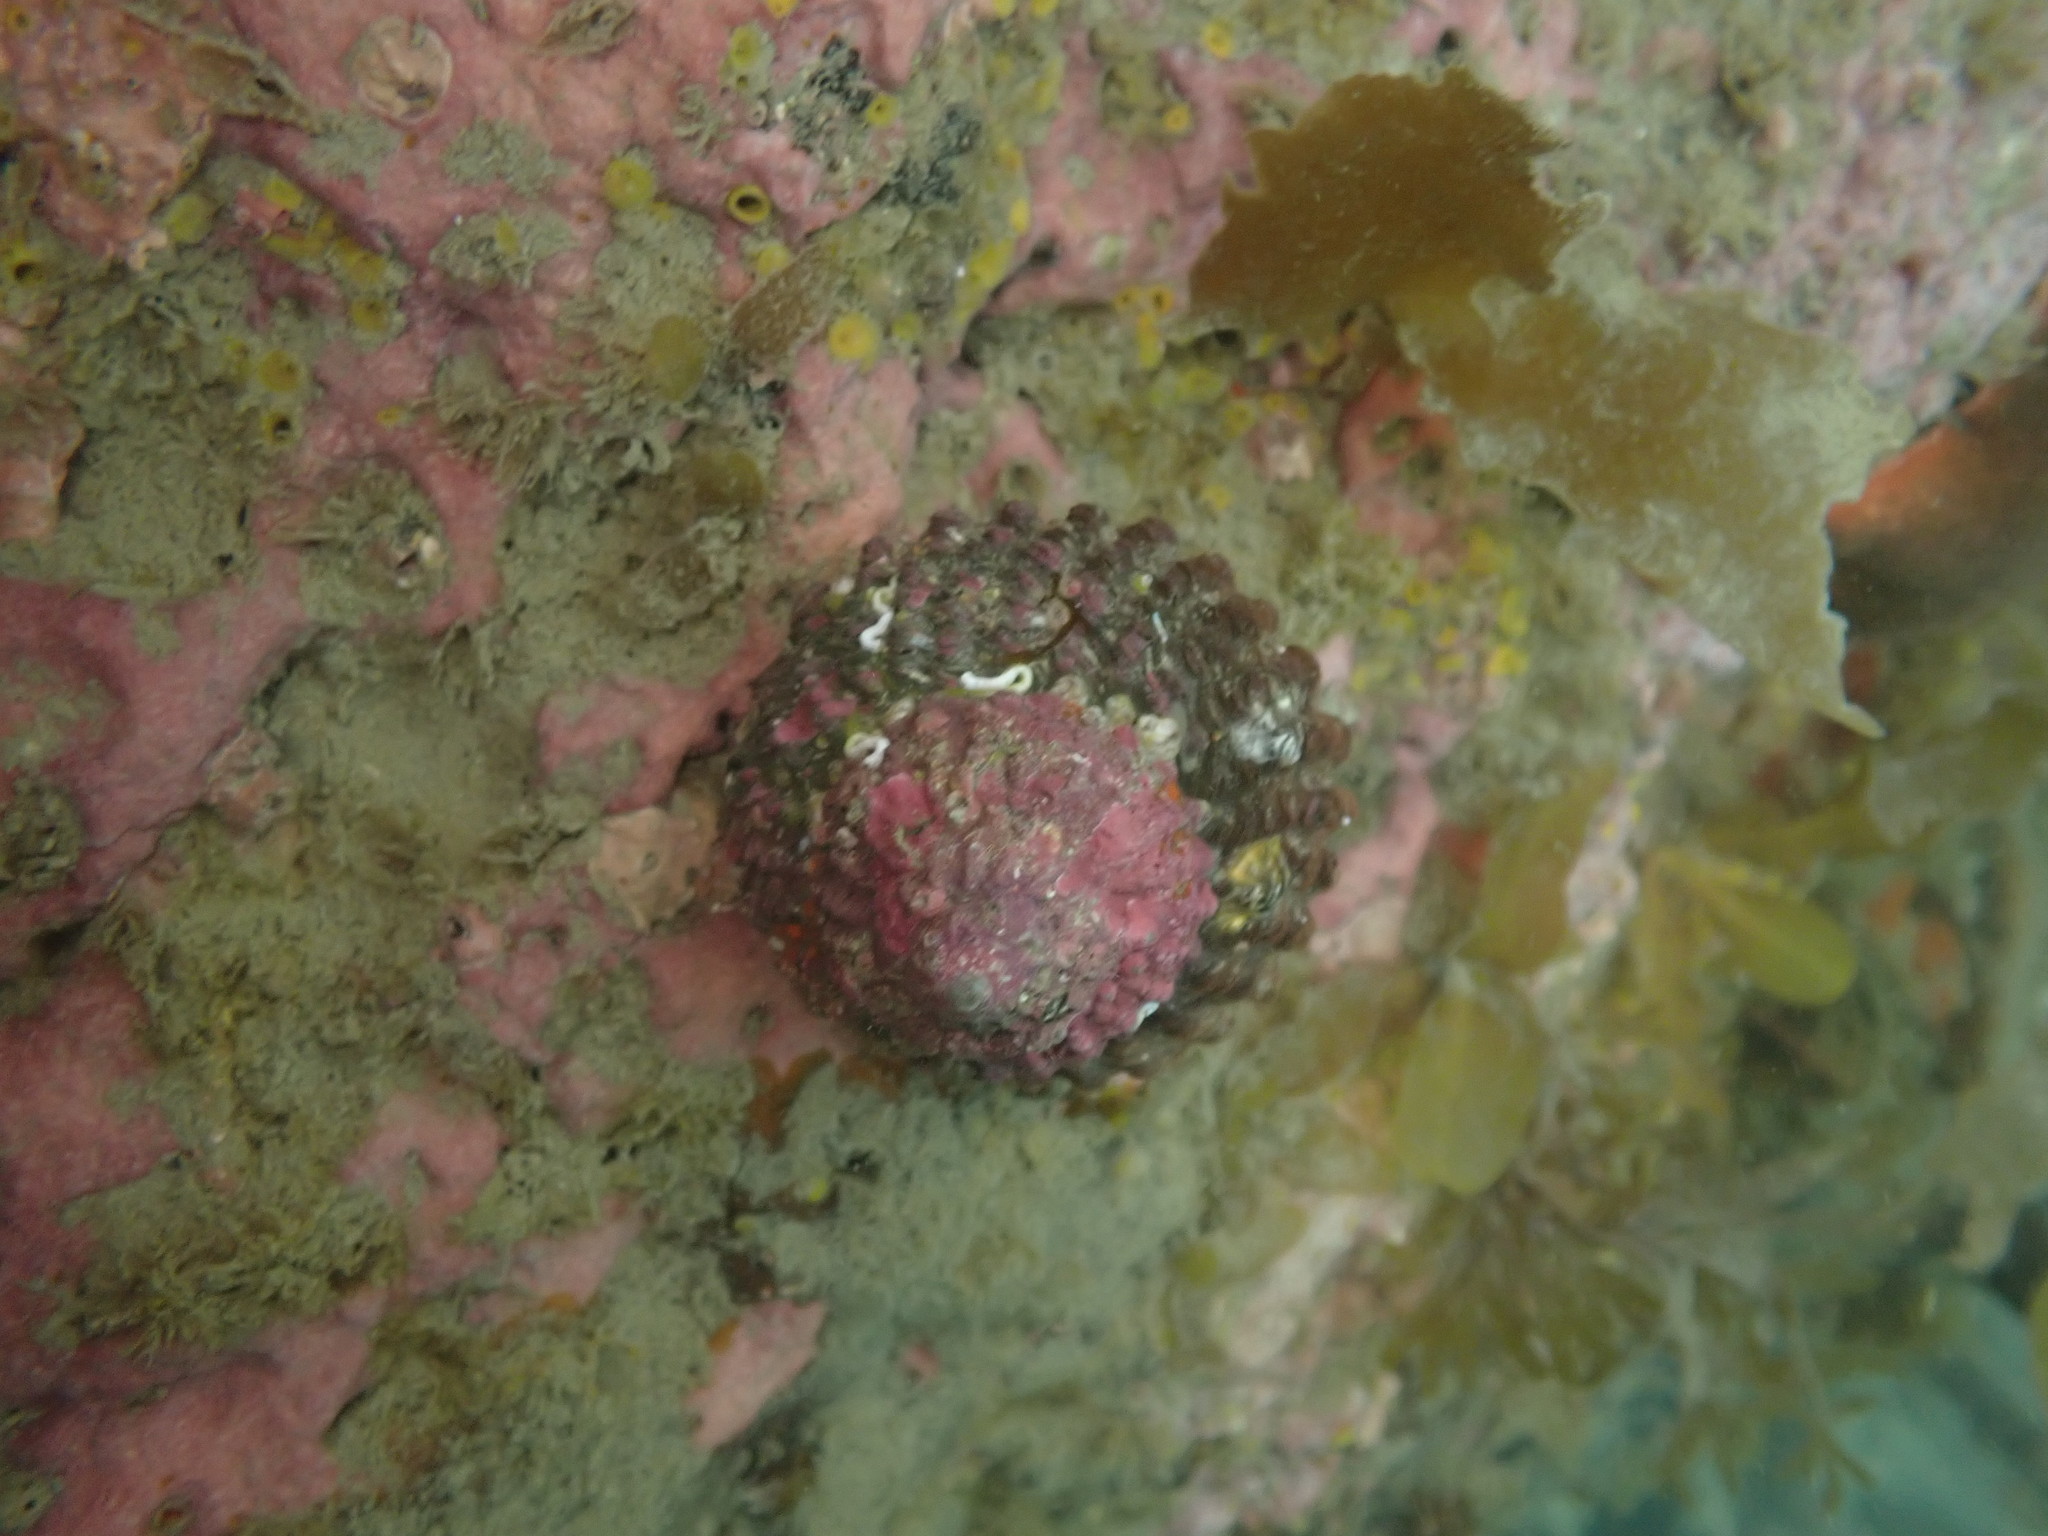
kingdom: Animalia
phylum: Mollusca
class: Gastropoda
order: Trochida
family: Turbinidae
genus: Cookia
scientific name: Cookia sulcata
